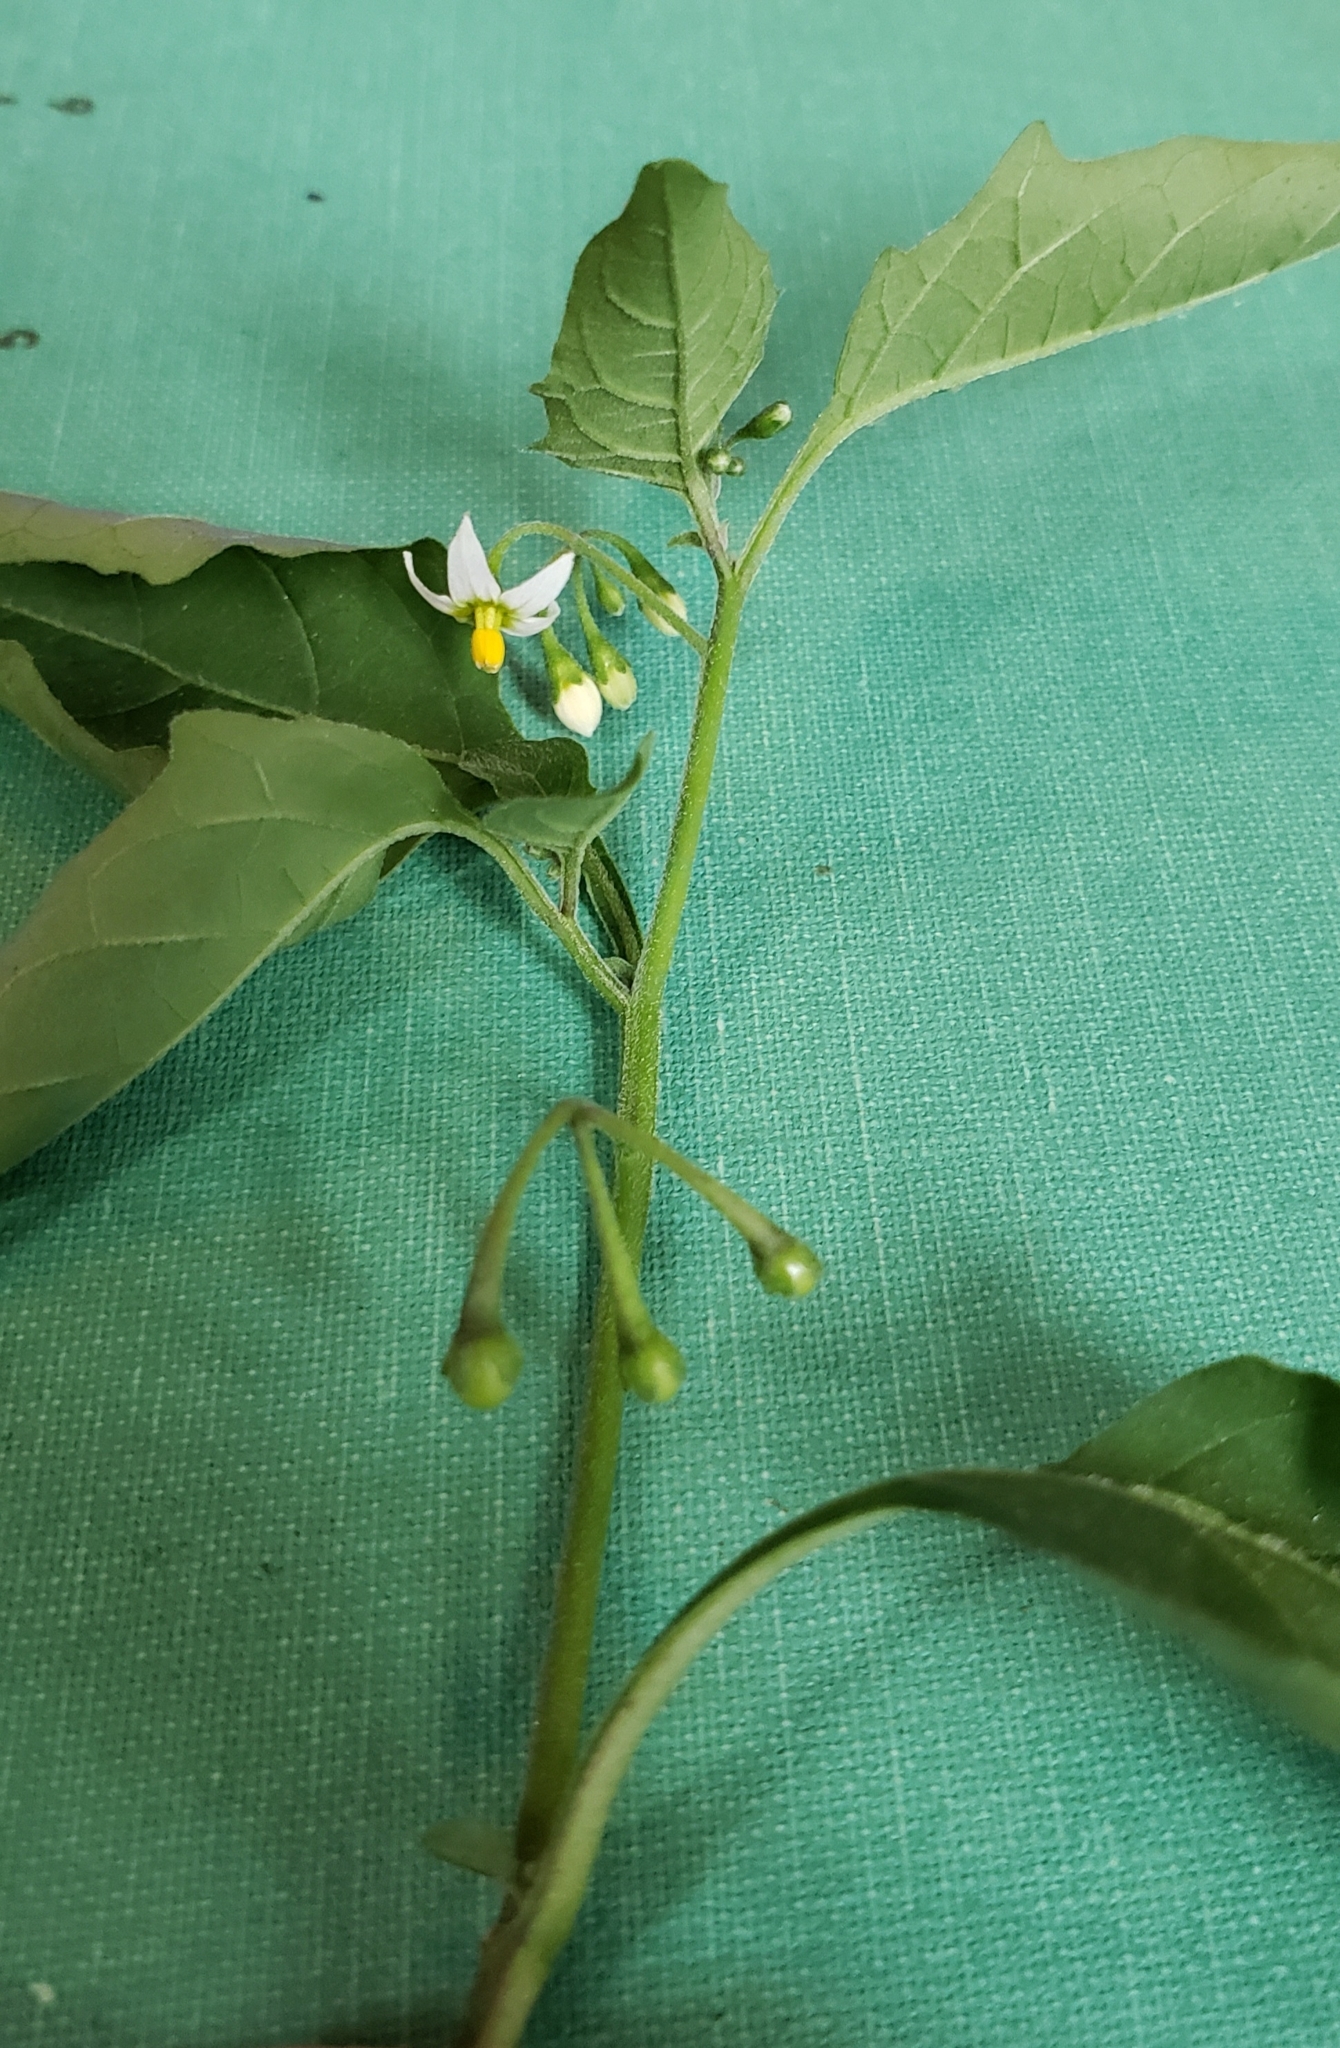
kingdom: Plantae
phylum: Tracheophyta
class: Magnoliopsida
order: Solanales
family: Solanaceae
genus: Solanum
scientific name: Solanum nigrum
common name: Black nightshade
